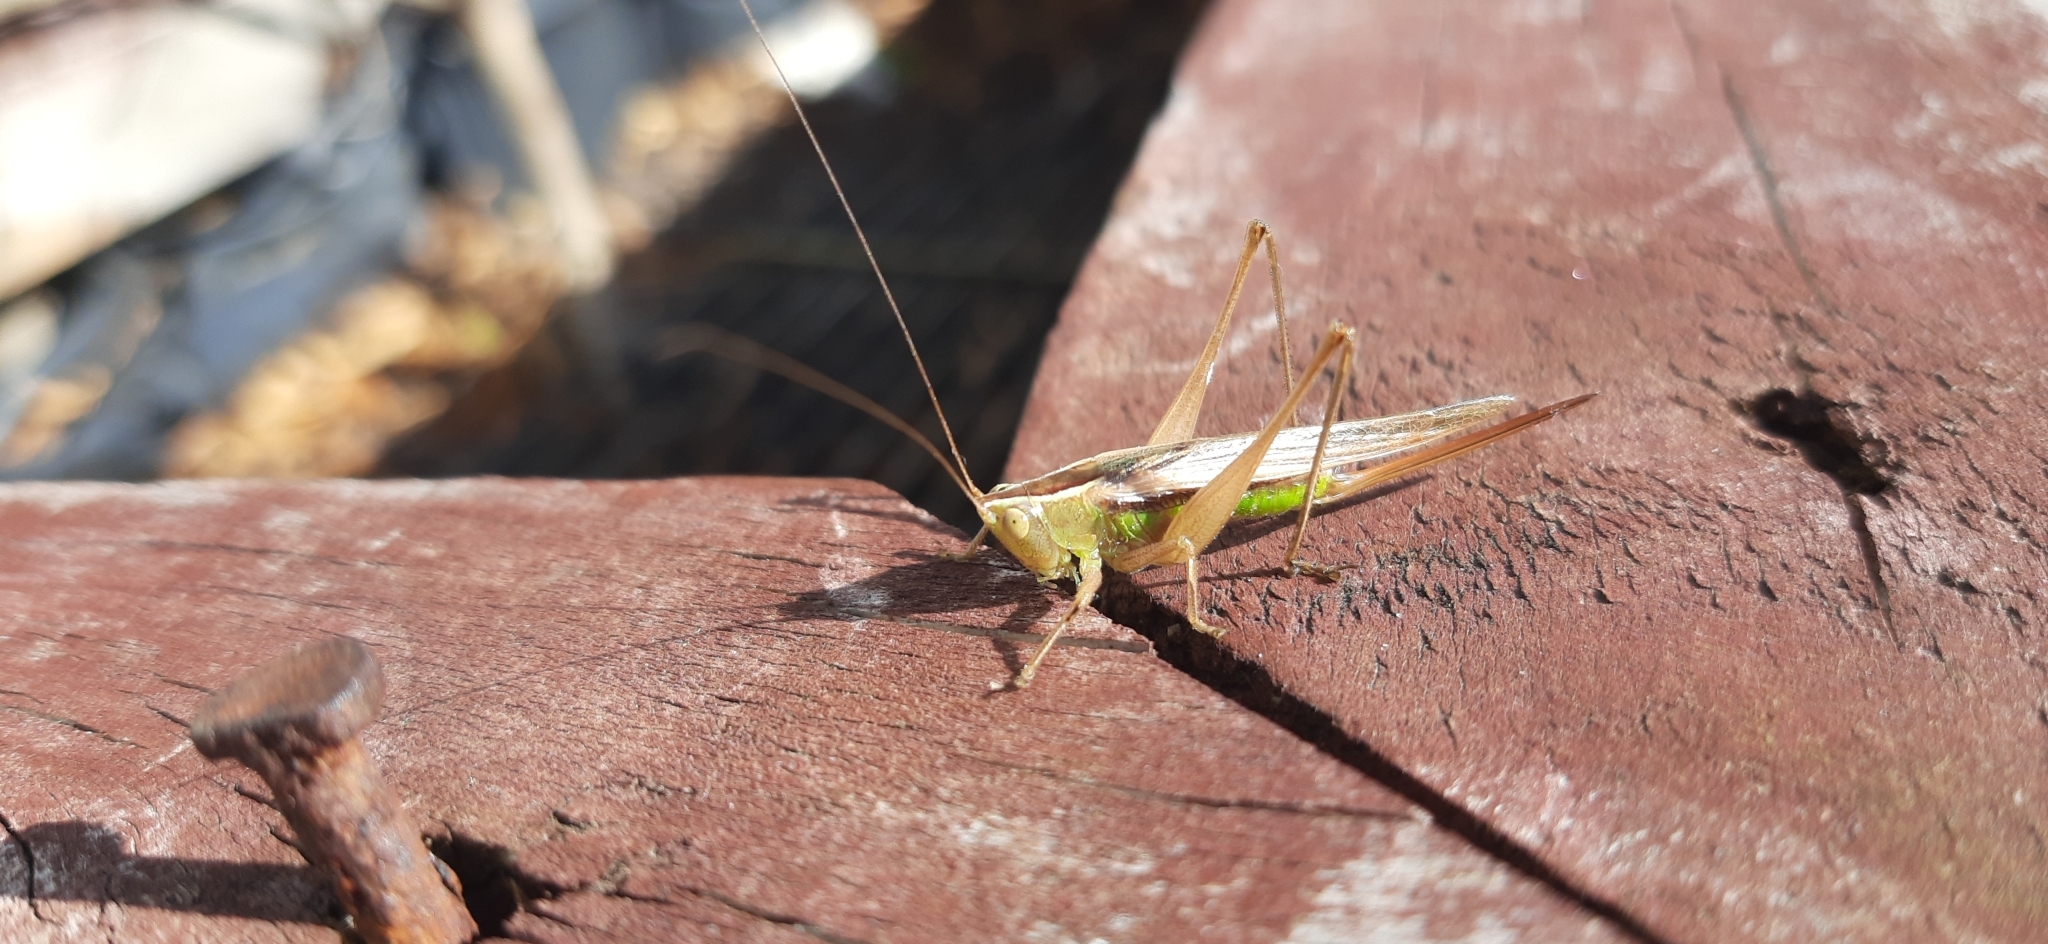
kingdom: Animalia
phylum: Arthropoda
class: Insecta
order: Orthoptera
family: Tettigoniidae
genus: Conocephalus
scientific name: Conocephalus albescens
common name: Whitish meadow katydid
